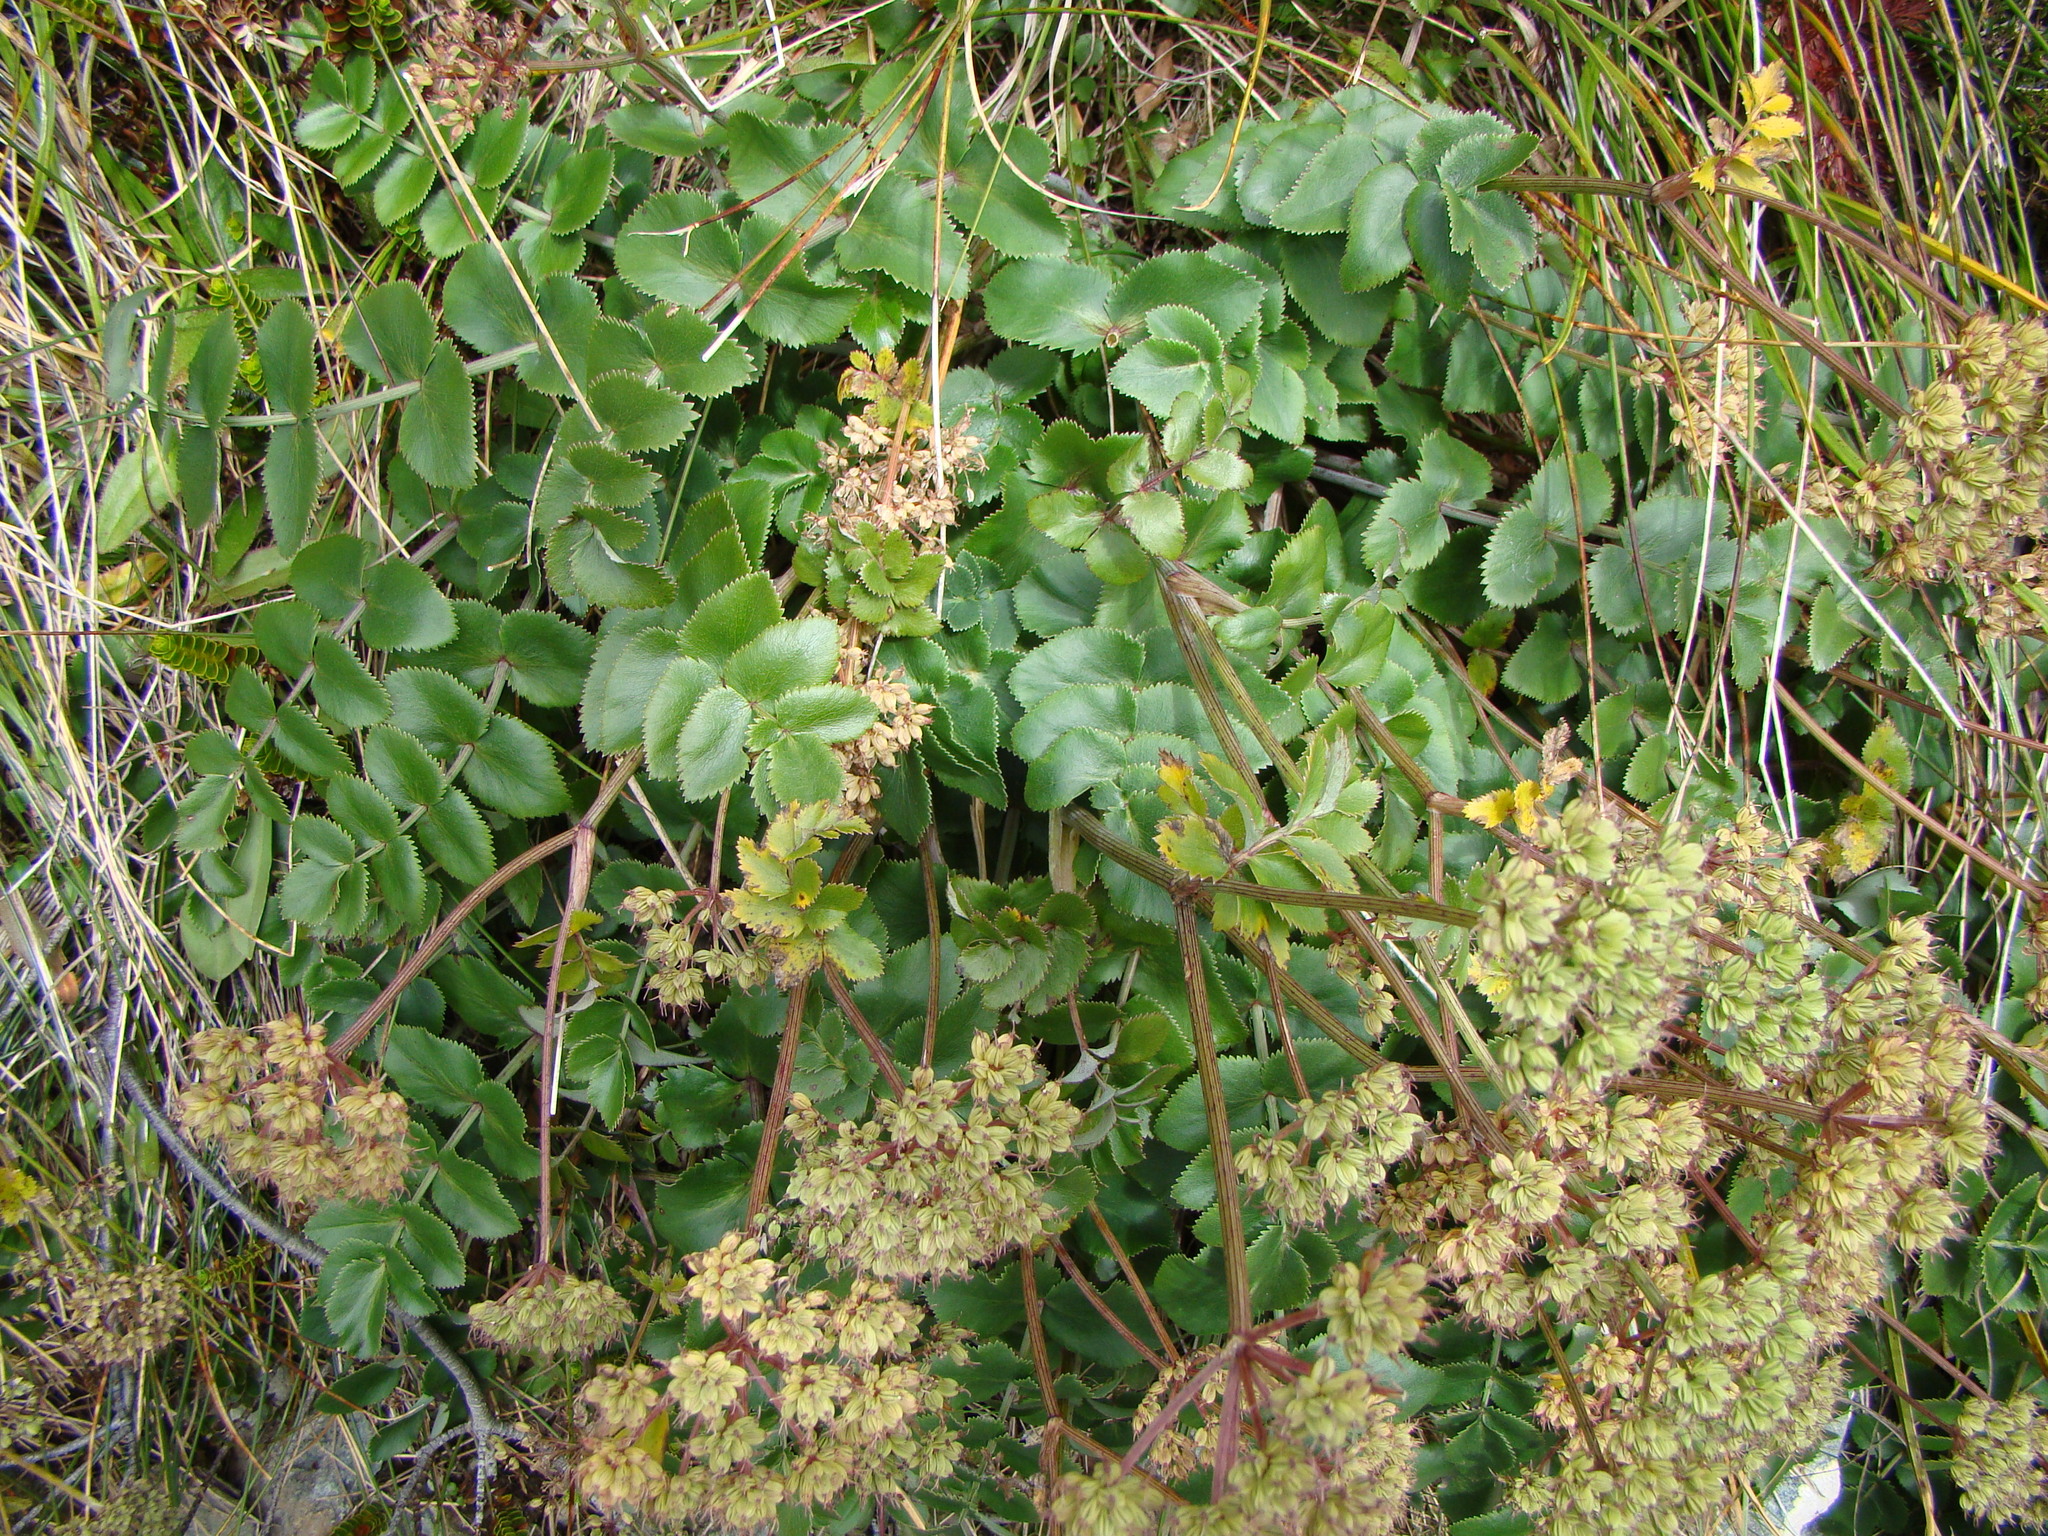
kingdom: Plantae
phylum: Tracheophyta
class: Magnoliopsida
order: Apiales
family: Apiaceae
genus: Gingidia
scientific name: Gingidia montana
